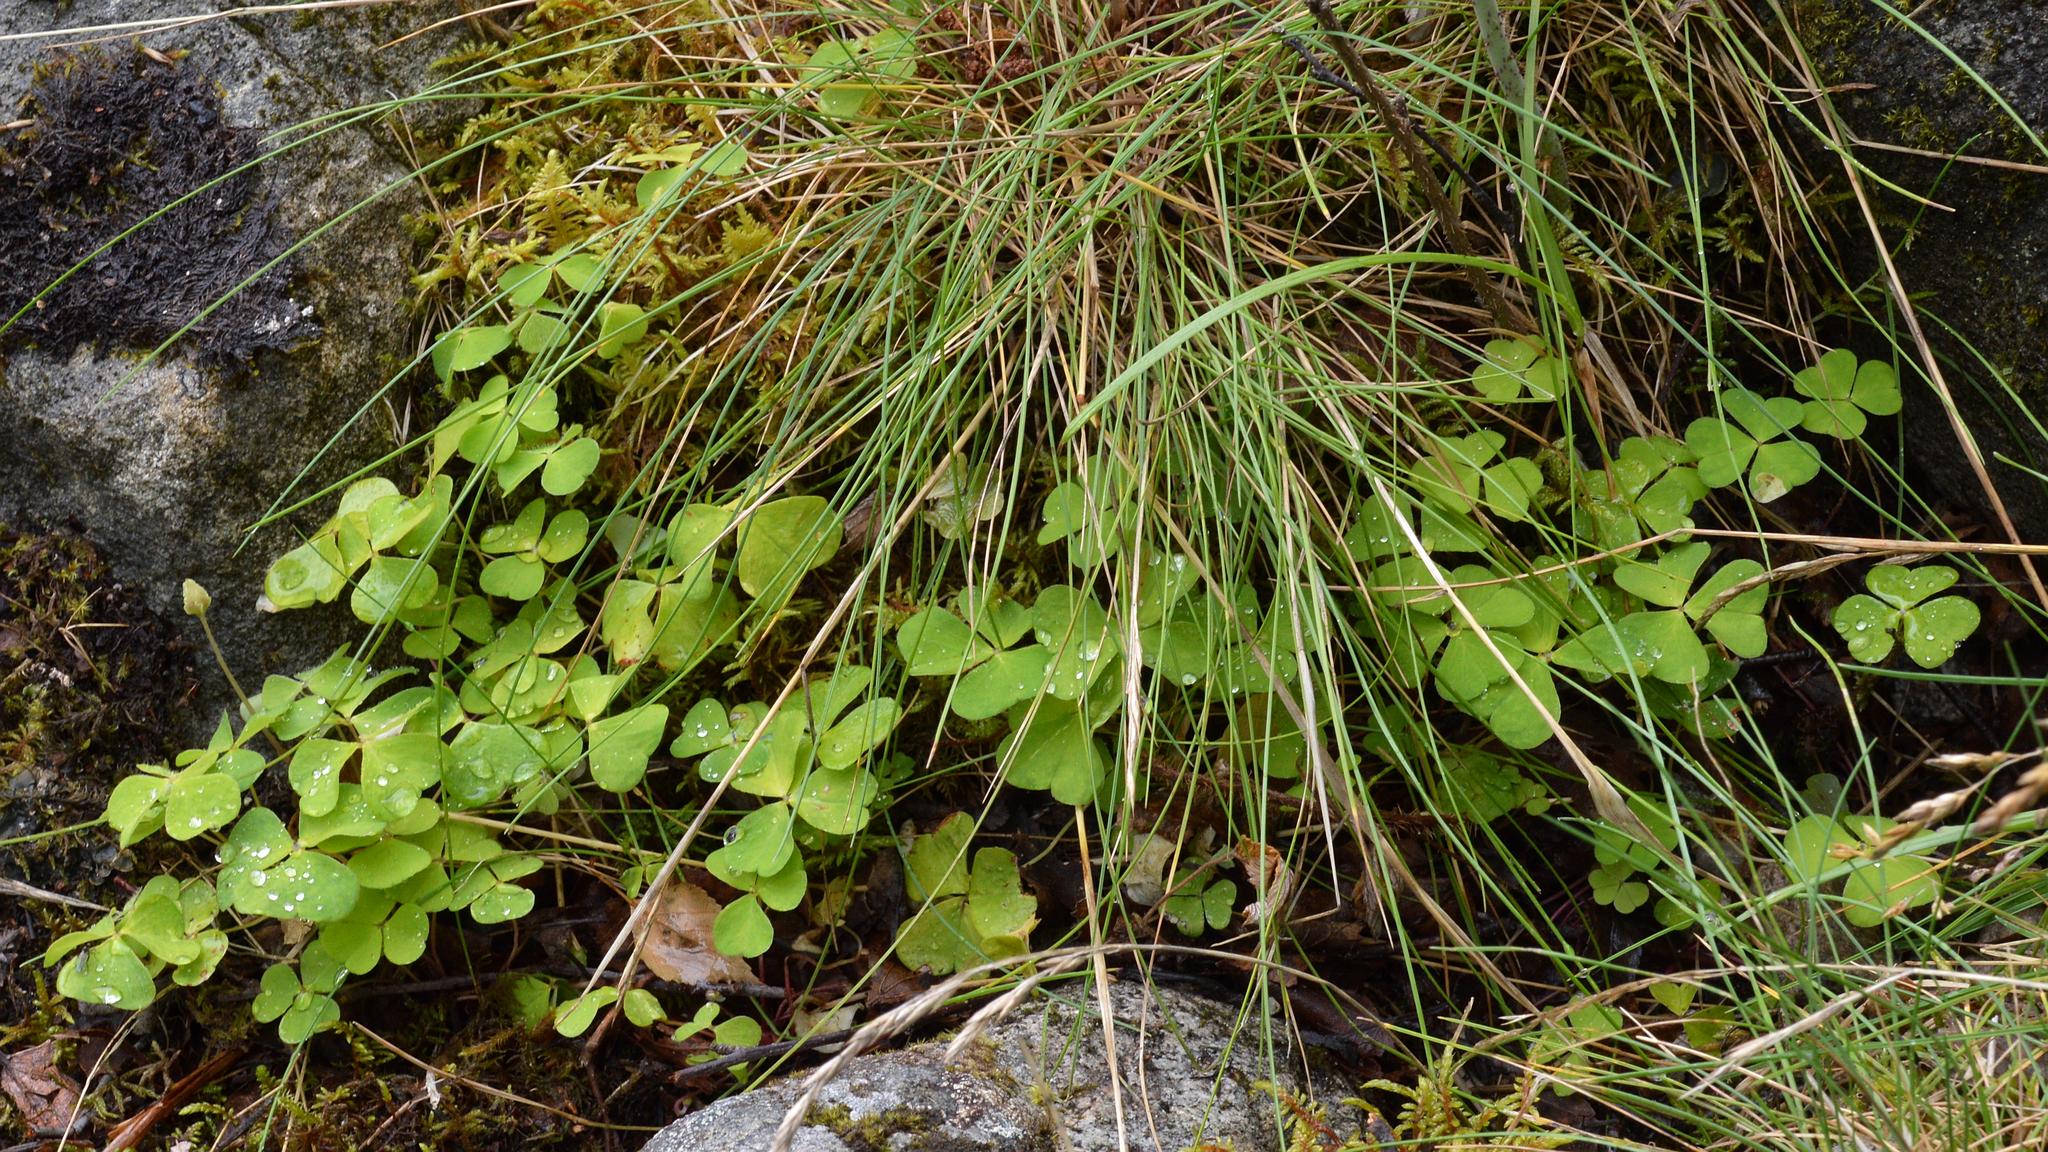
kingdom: Plantae
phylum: Tracheophyta
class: Magnoliopsida
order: Oxalidales
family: Oxalidaceae
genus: Oxalis
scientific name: Oxalis acetosella
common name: Wood-sorrel
